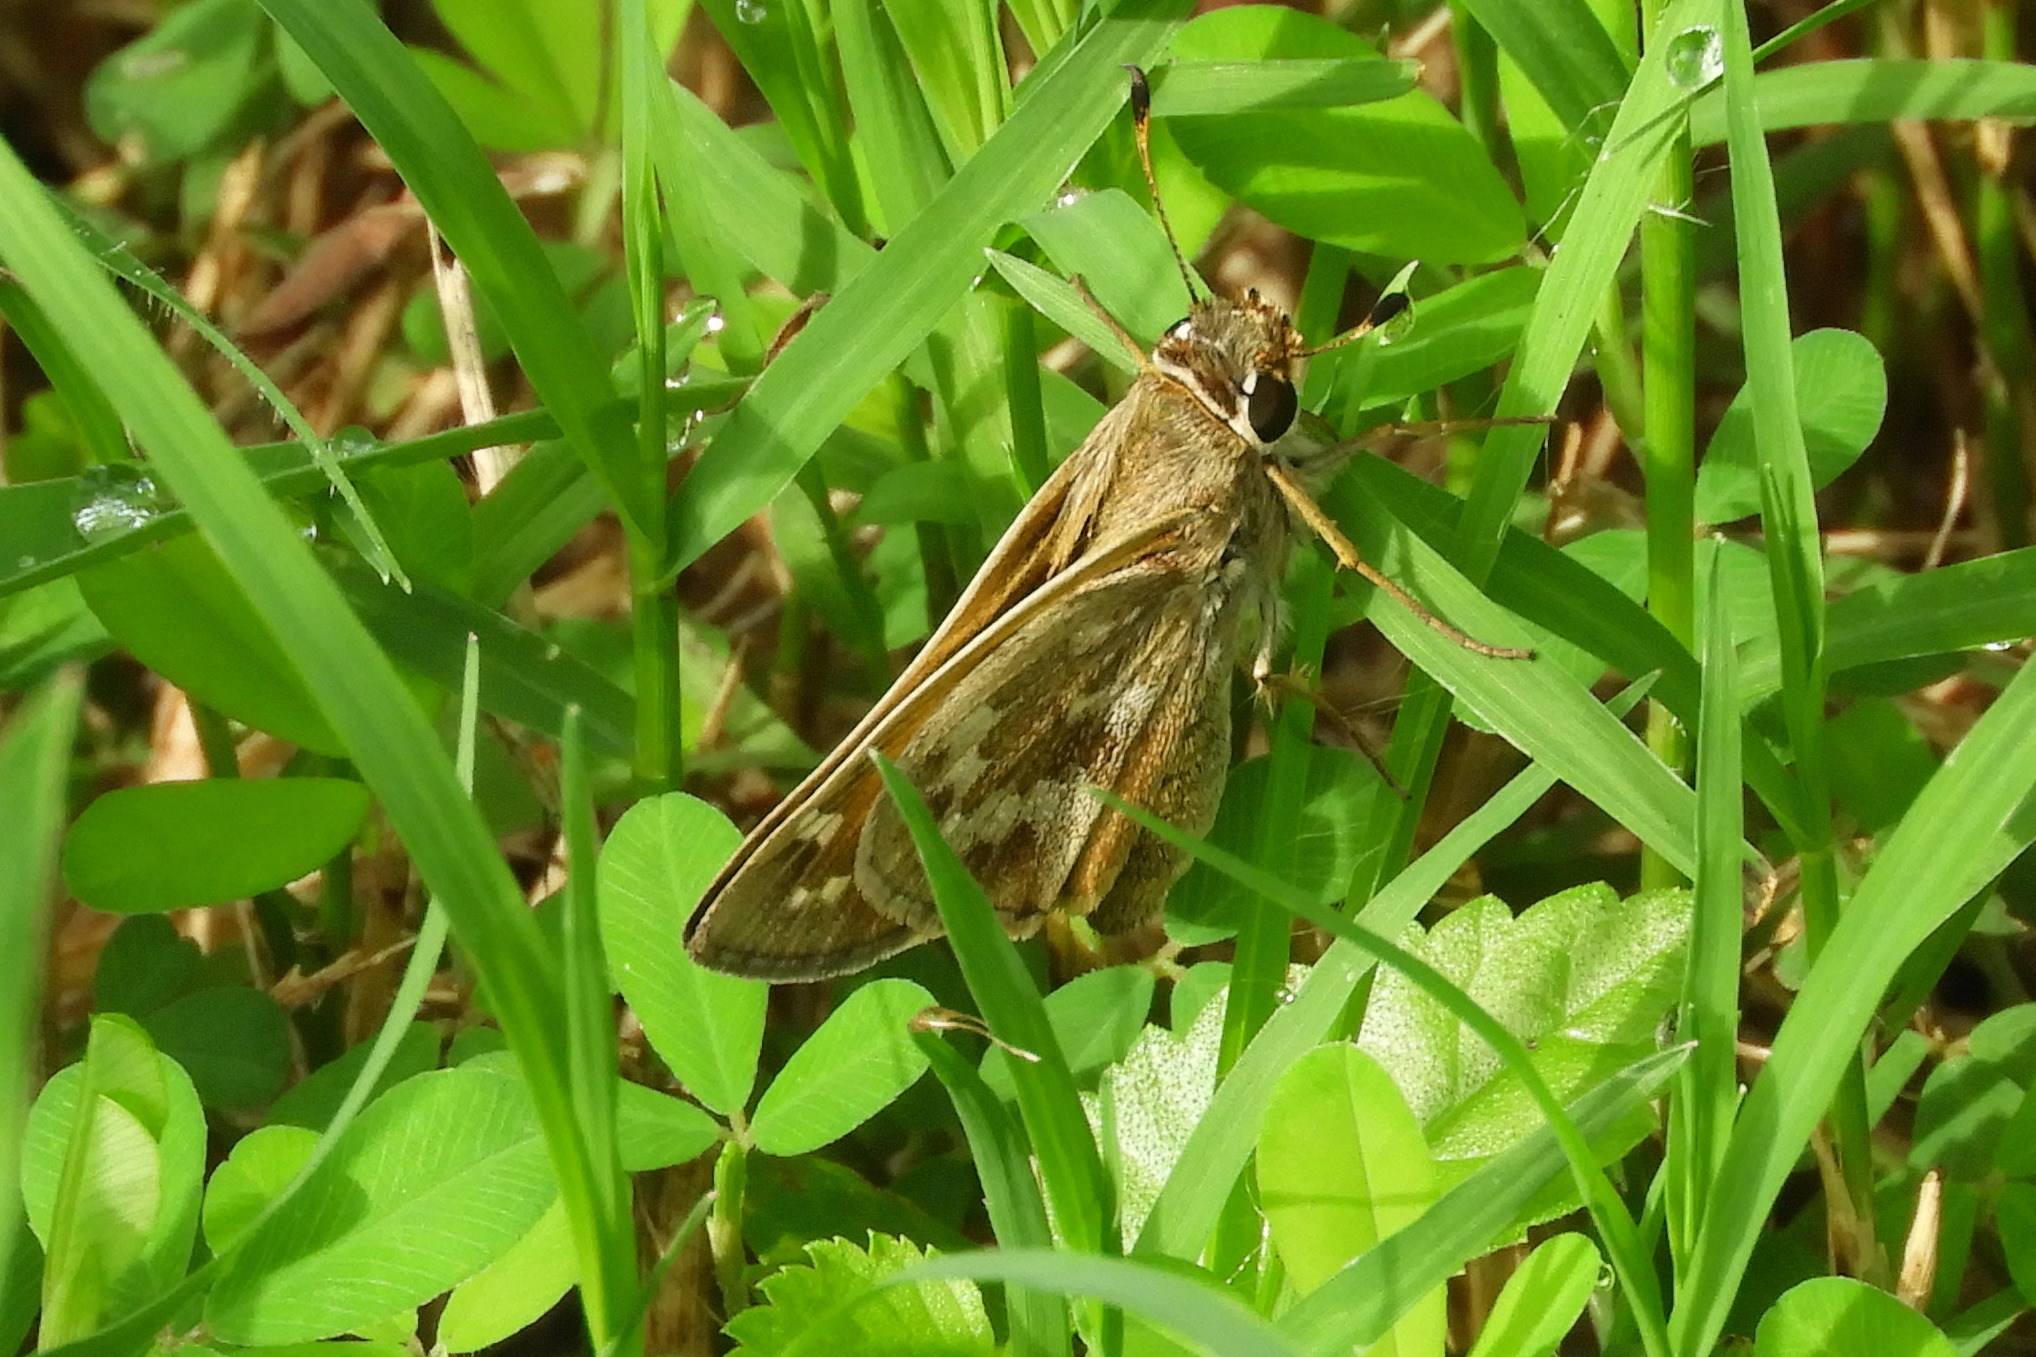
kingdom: Animalia
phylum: Arthropoda
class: Insecta
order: Lepidoptera
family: Hesperiidae
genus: Atalopedes
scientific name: Atalopedes
